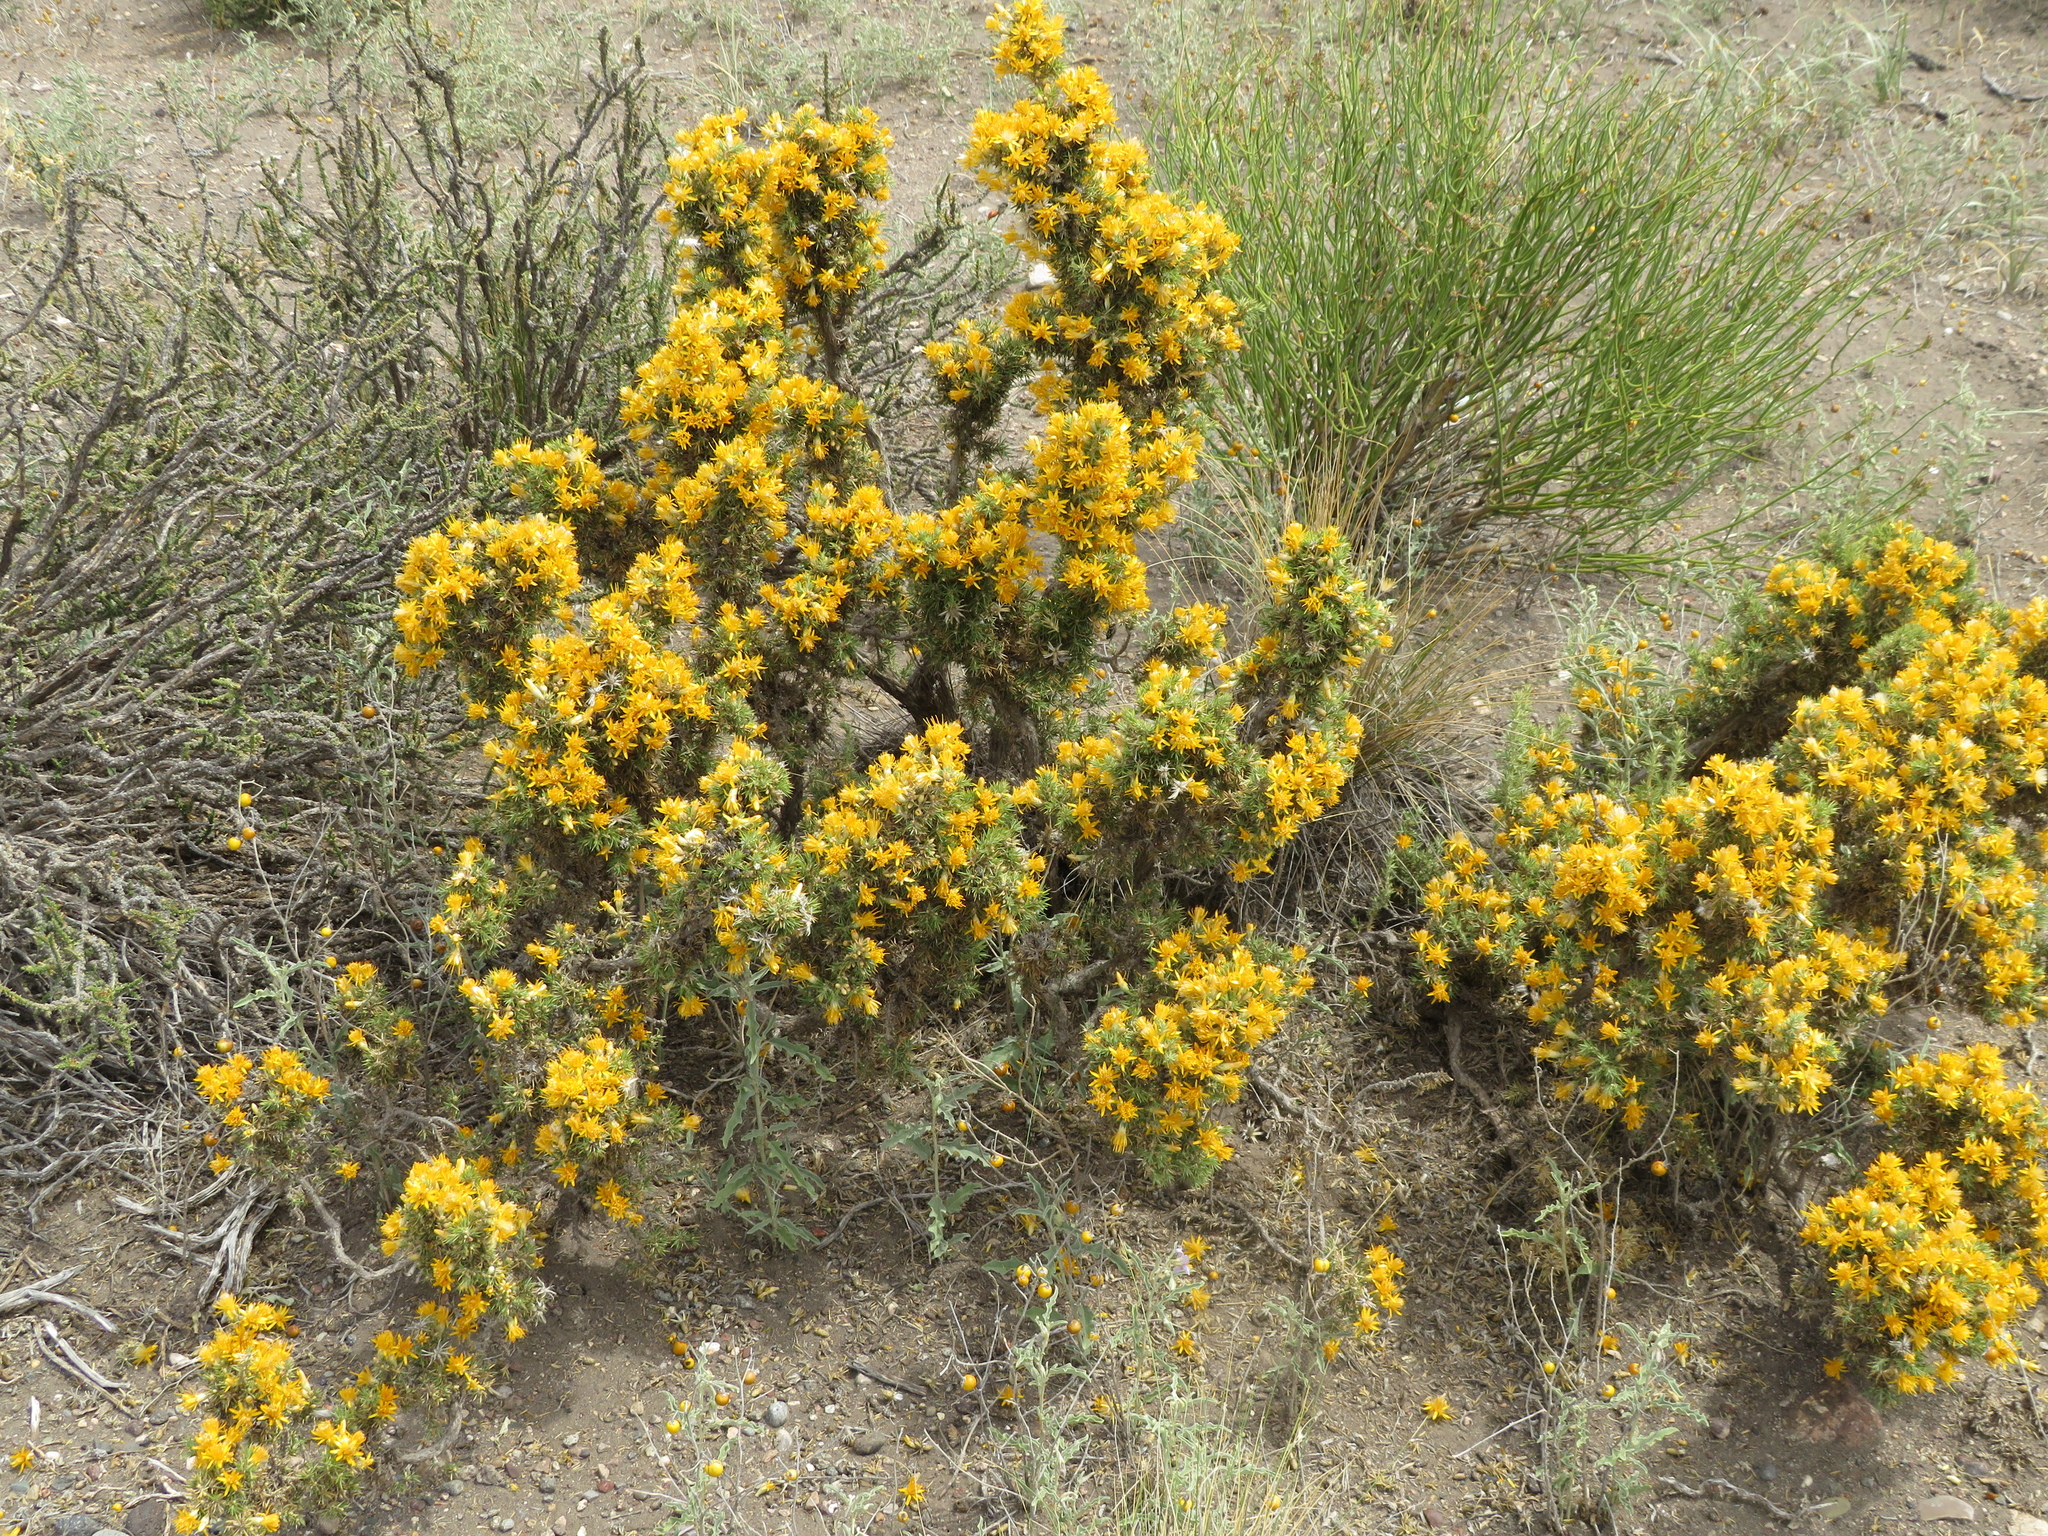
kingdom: Plantae
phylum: Tracheophyta
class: Magnoliopsida
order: Asterales
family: Asteraceae
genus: Chuquiraga
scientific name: Chuquiraga erinacea
